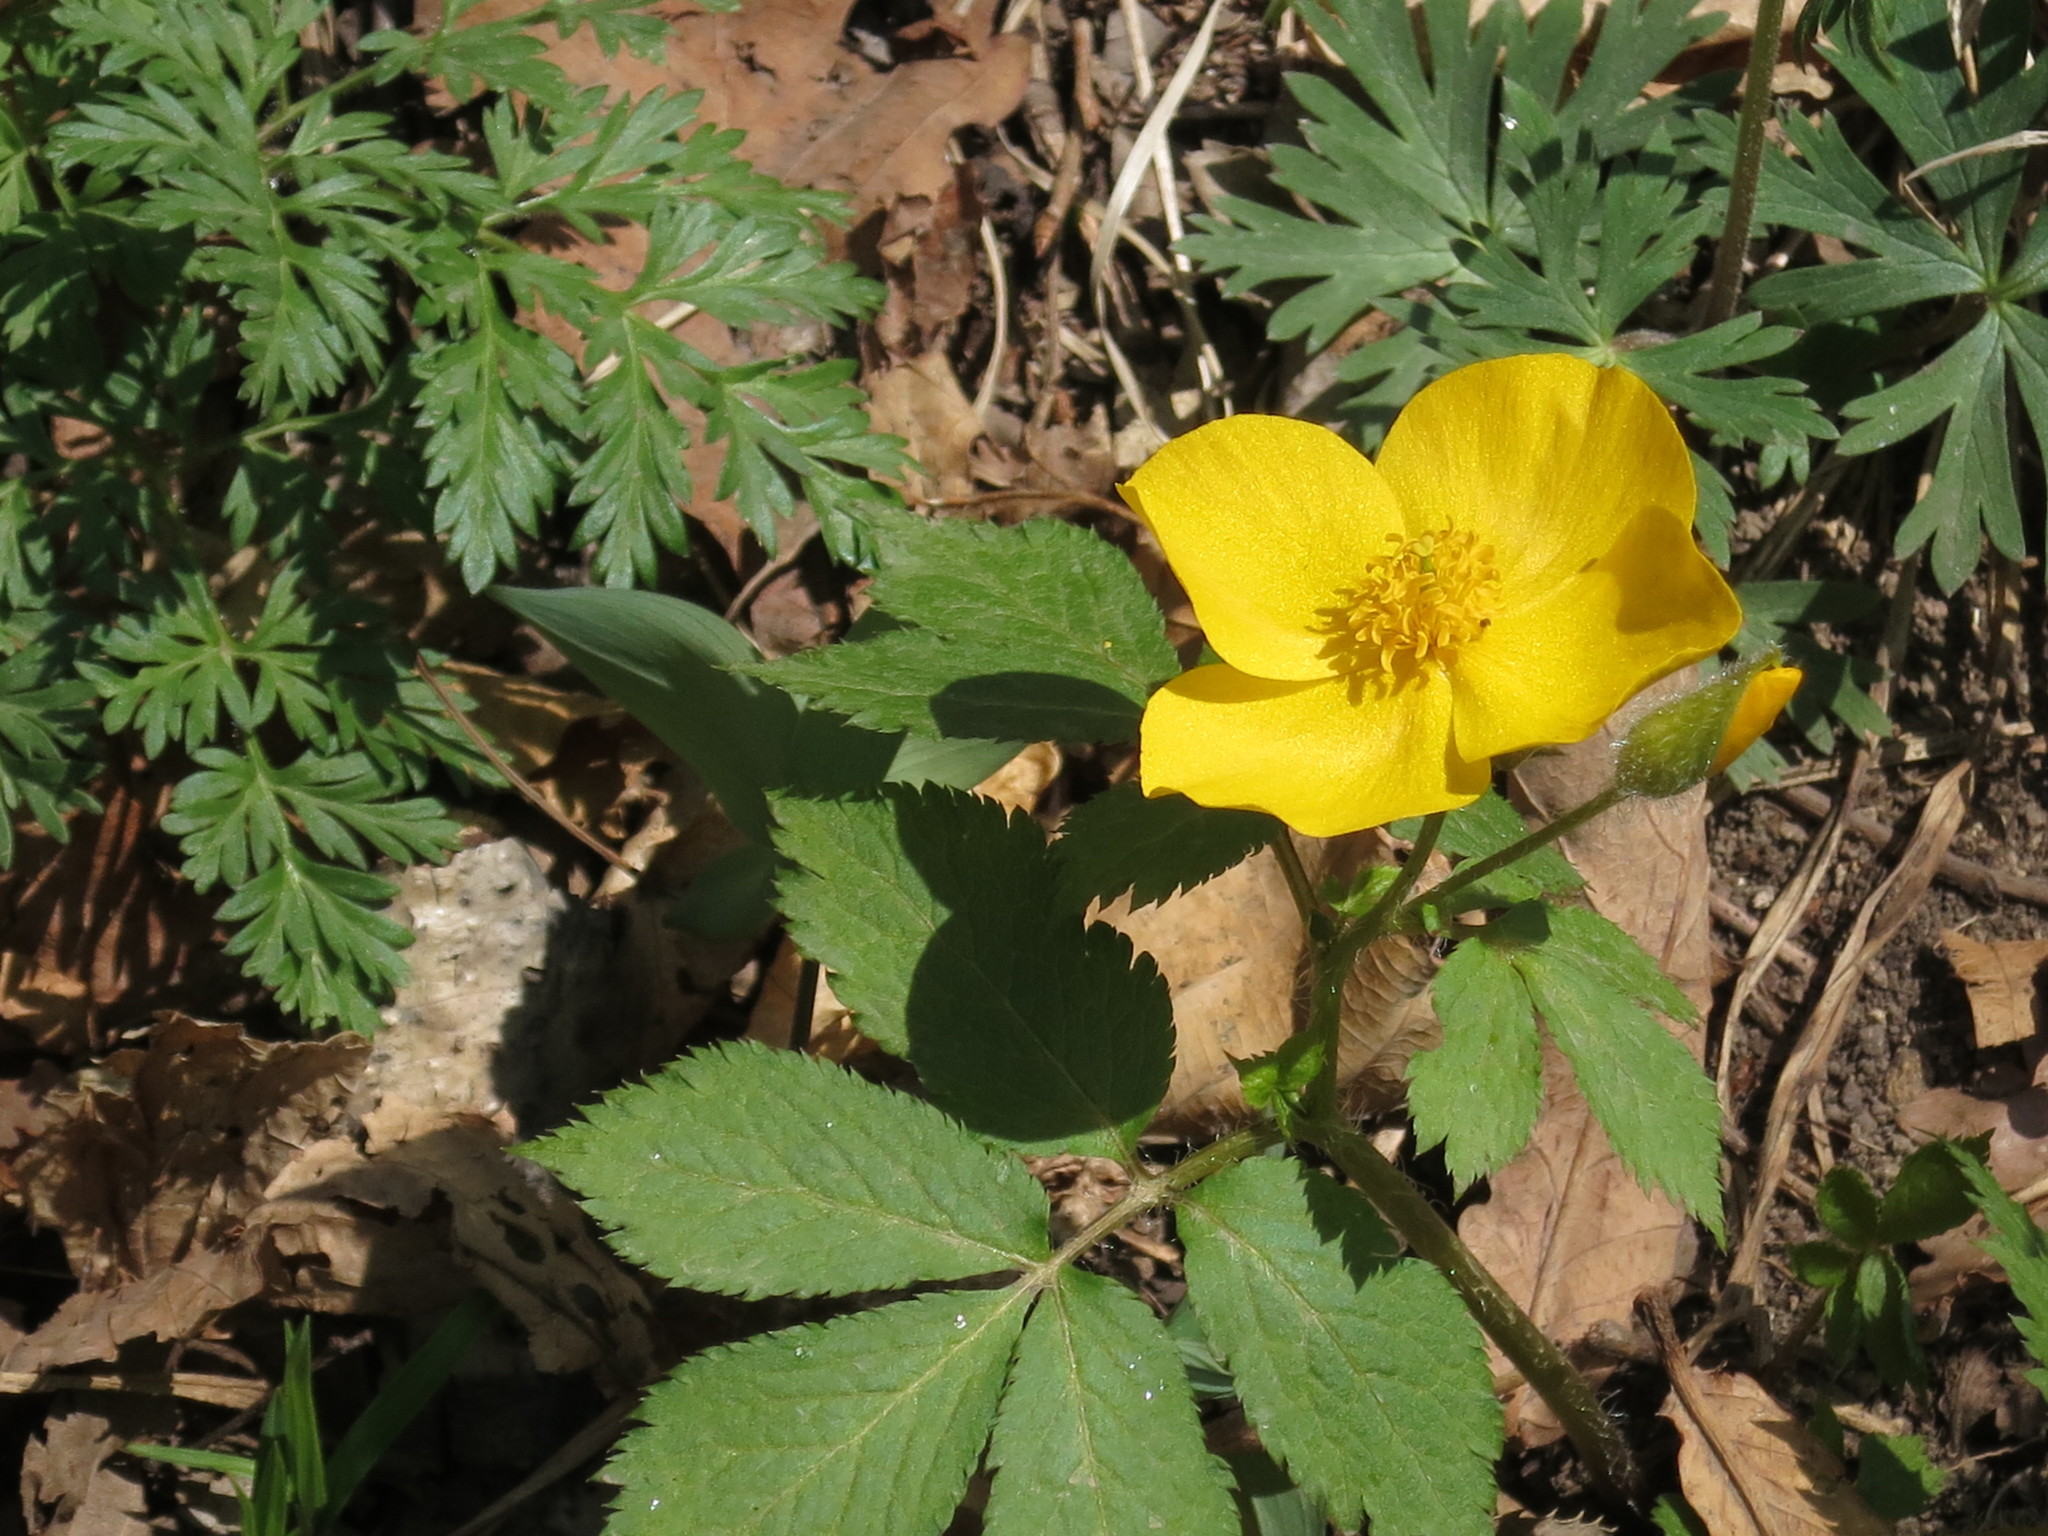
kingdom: Plantae
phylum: Tracheophyta
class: Magnoliopsida
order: Ranunculales
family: Papaveraceae
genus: Hylomecon
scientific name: Hylomecon vernalis
